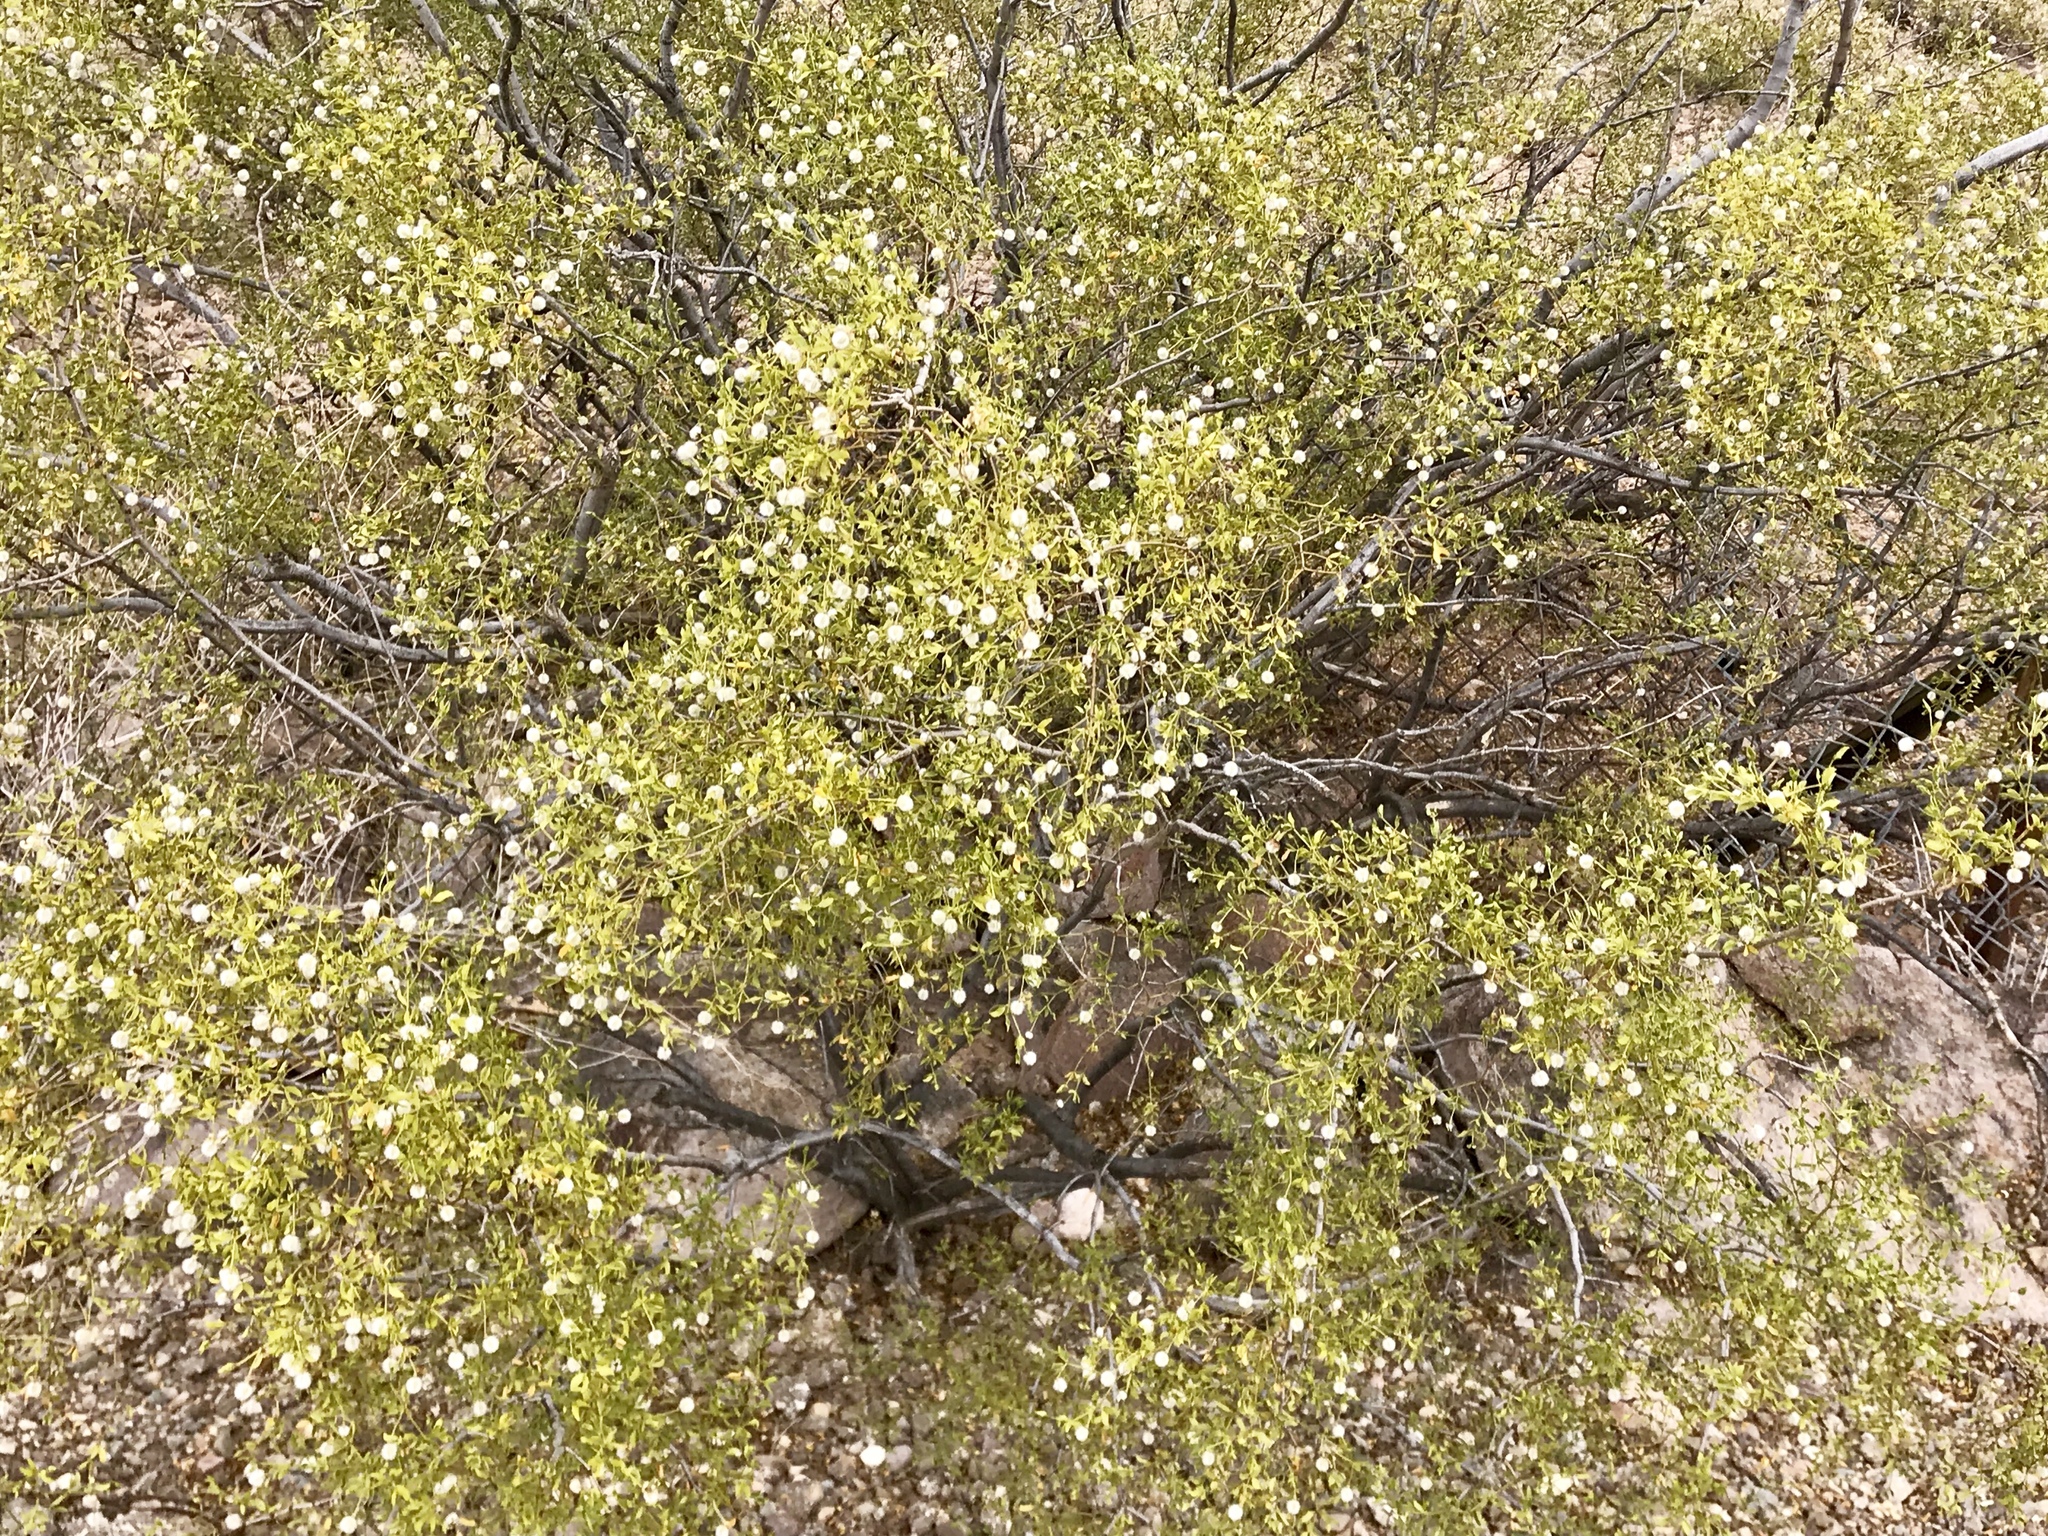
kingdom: Plantae
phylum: Tracheophyta
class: Magnoliopsida
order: Zygophyllales
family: Zygophyllaceae
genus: Larrea
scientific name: Larrea tridentata
